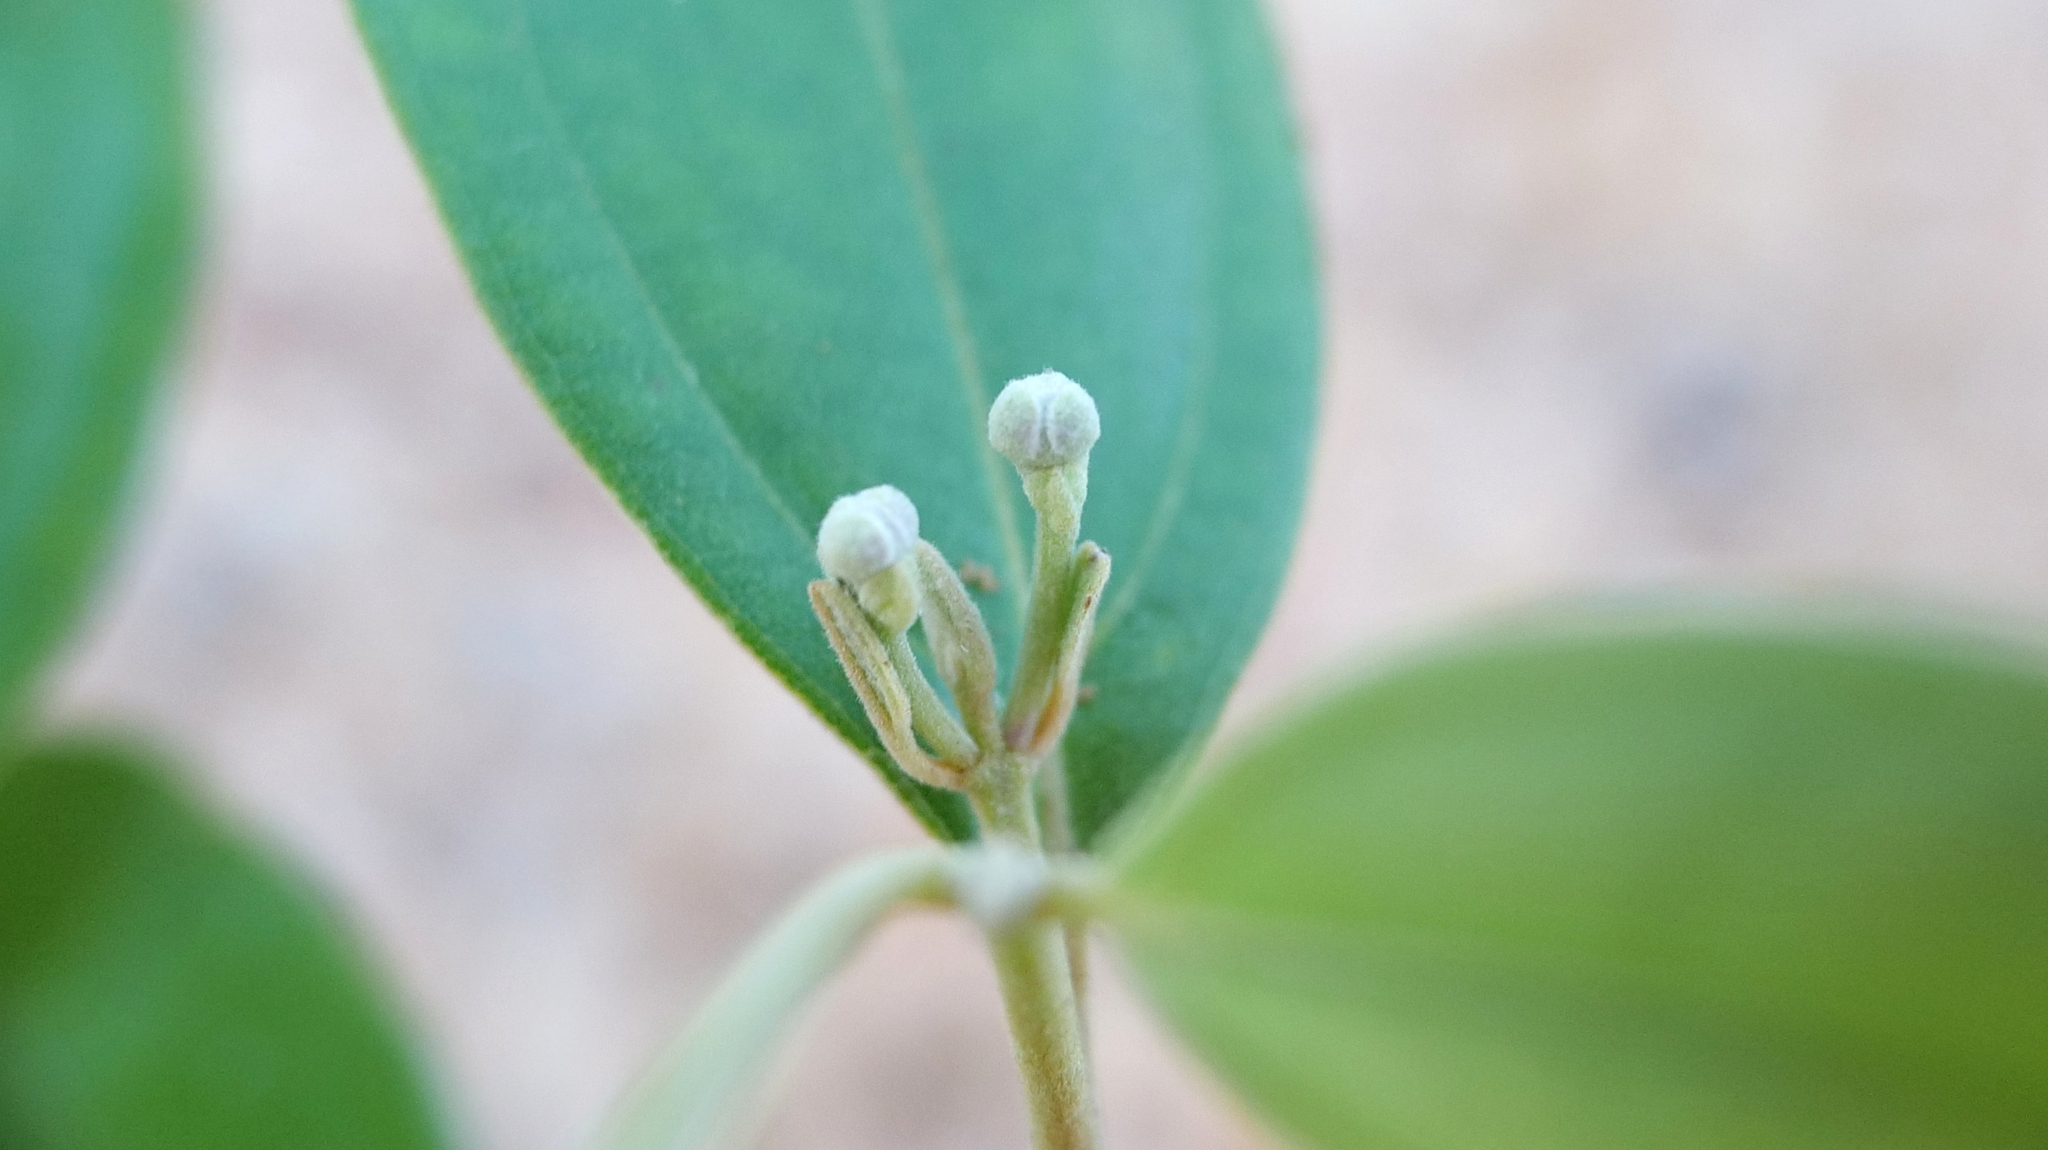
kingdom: Plantae
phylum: Tracheophyta
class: Magnoliopsida
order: Myrtales
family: Myrtaceae
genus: Rhodomyrtus
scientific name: Rhodomyrtus tomentosa
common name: Rose myrtle
